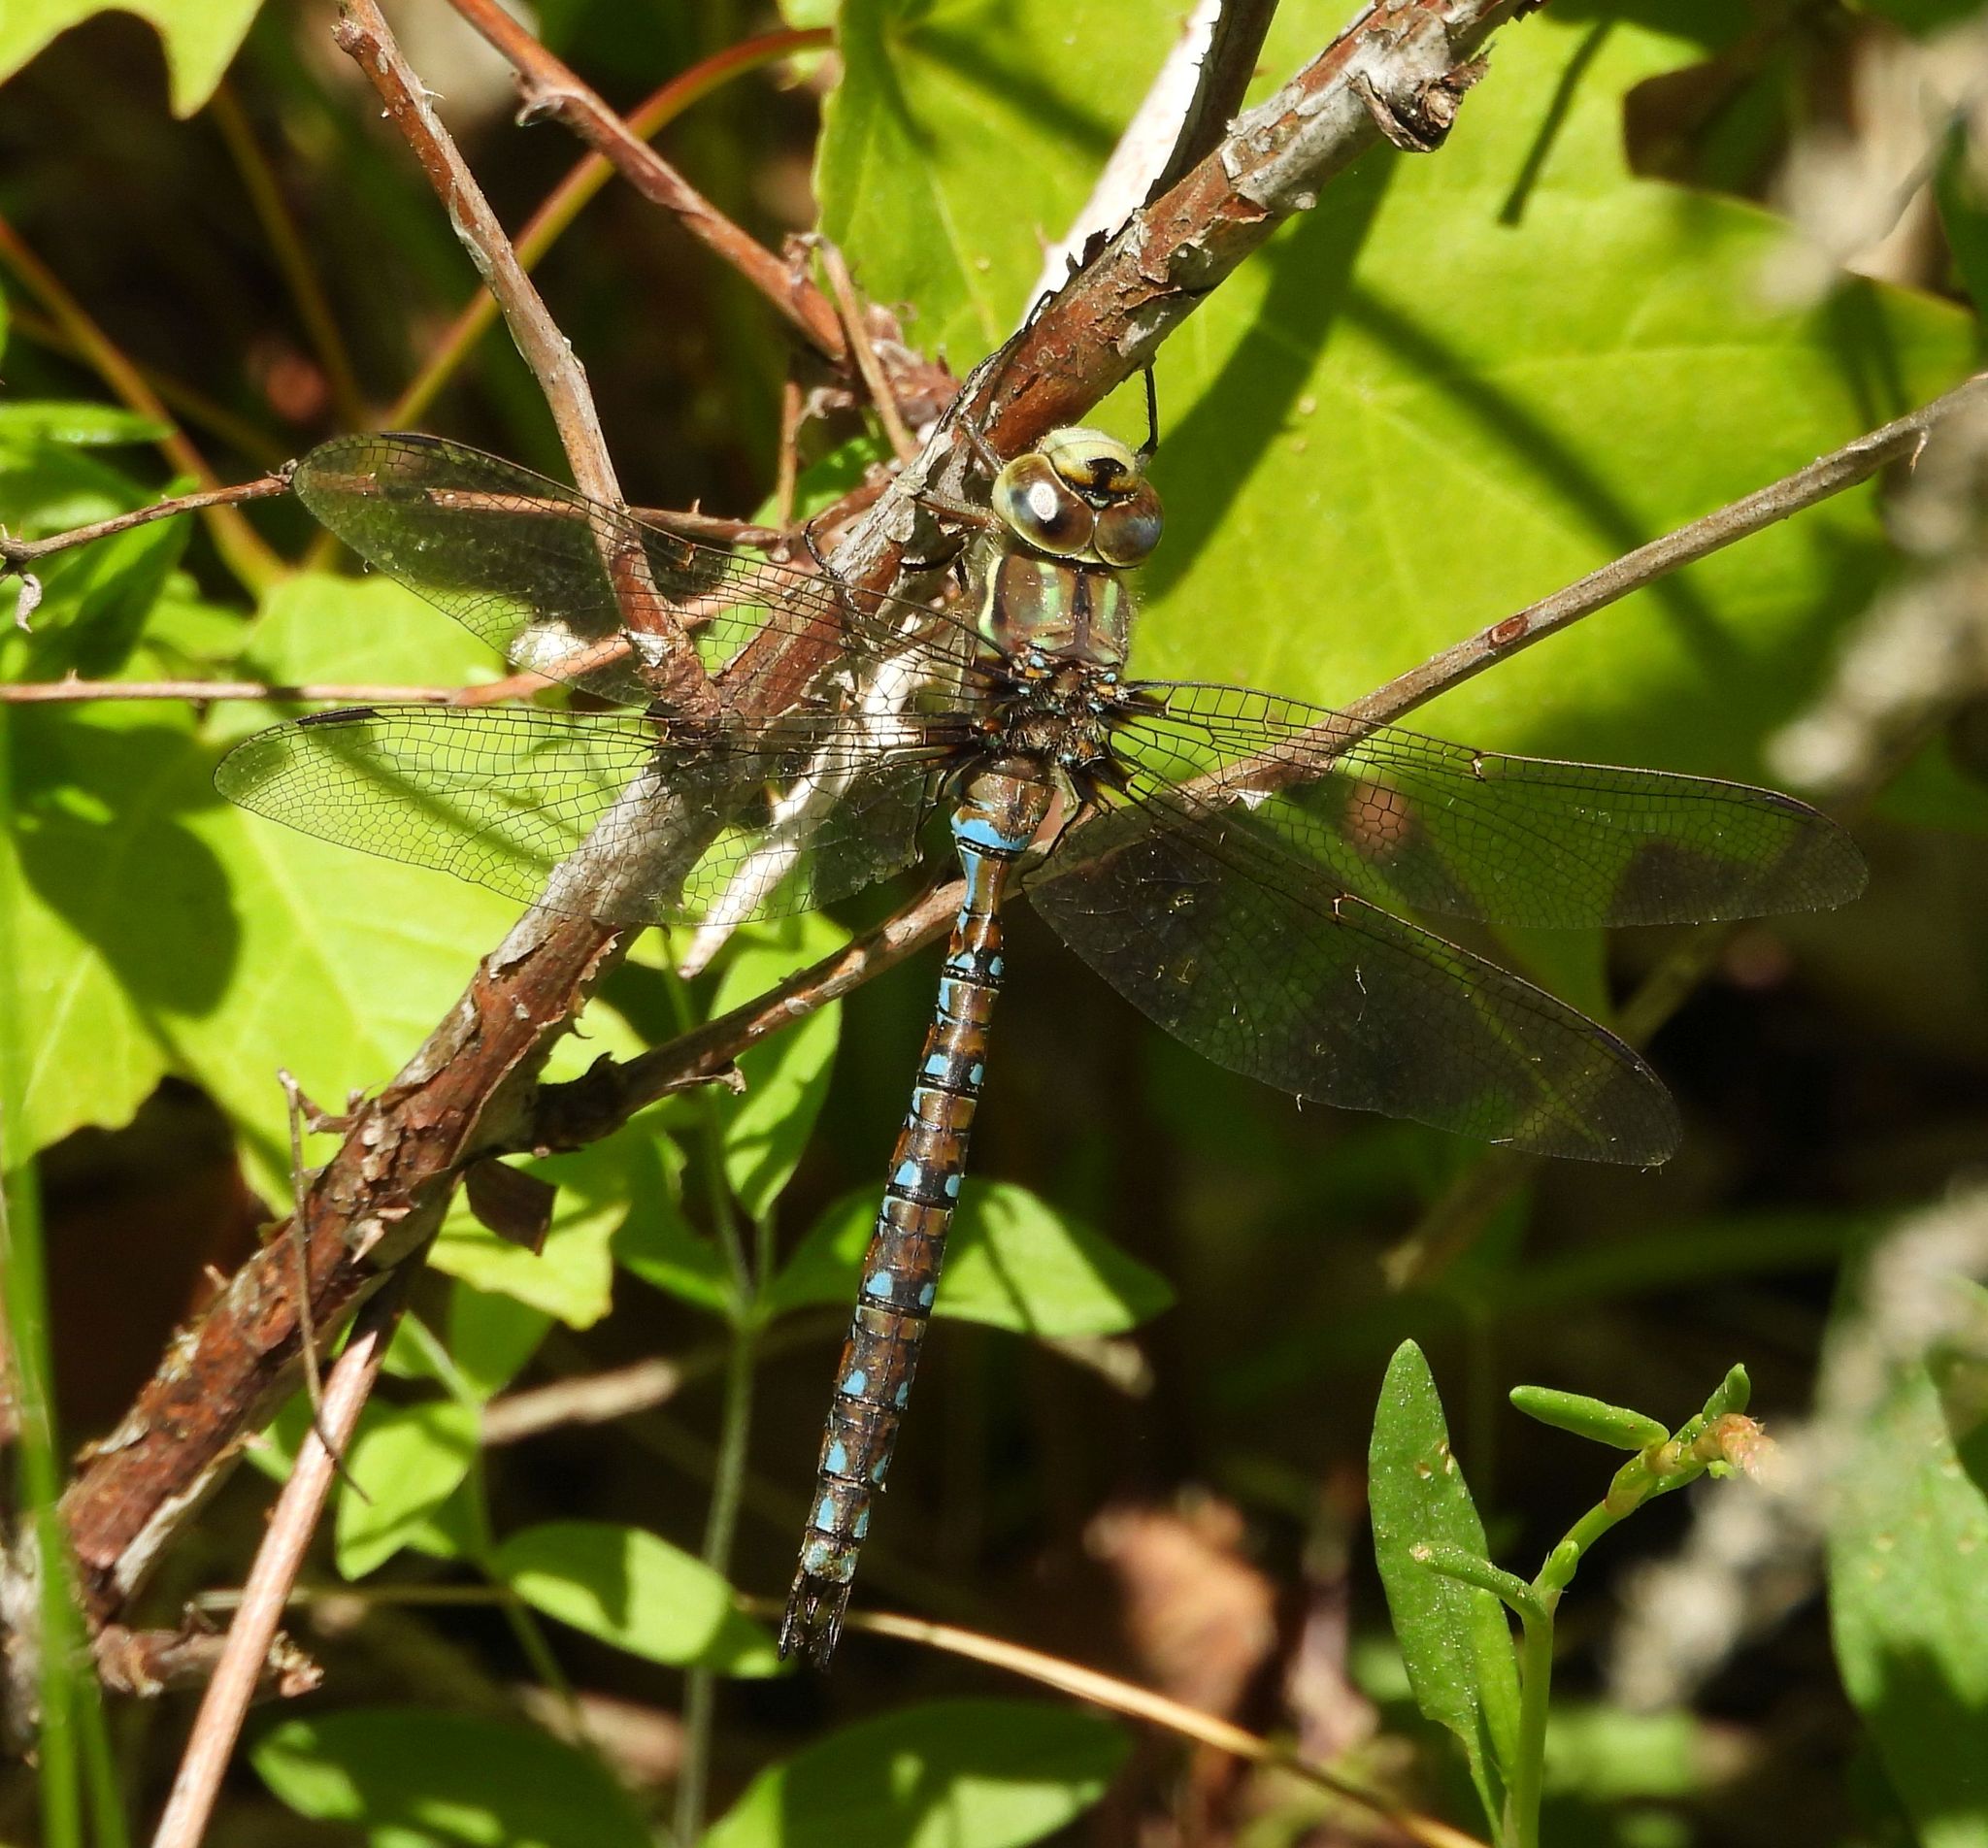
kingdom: Animalia
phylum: Arthropoda
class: Insecta
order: Odonata
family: Aeshnidae
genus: Basiaeschna
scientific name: Basiaeschna janata
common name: Springtime darner
